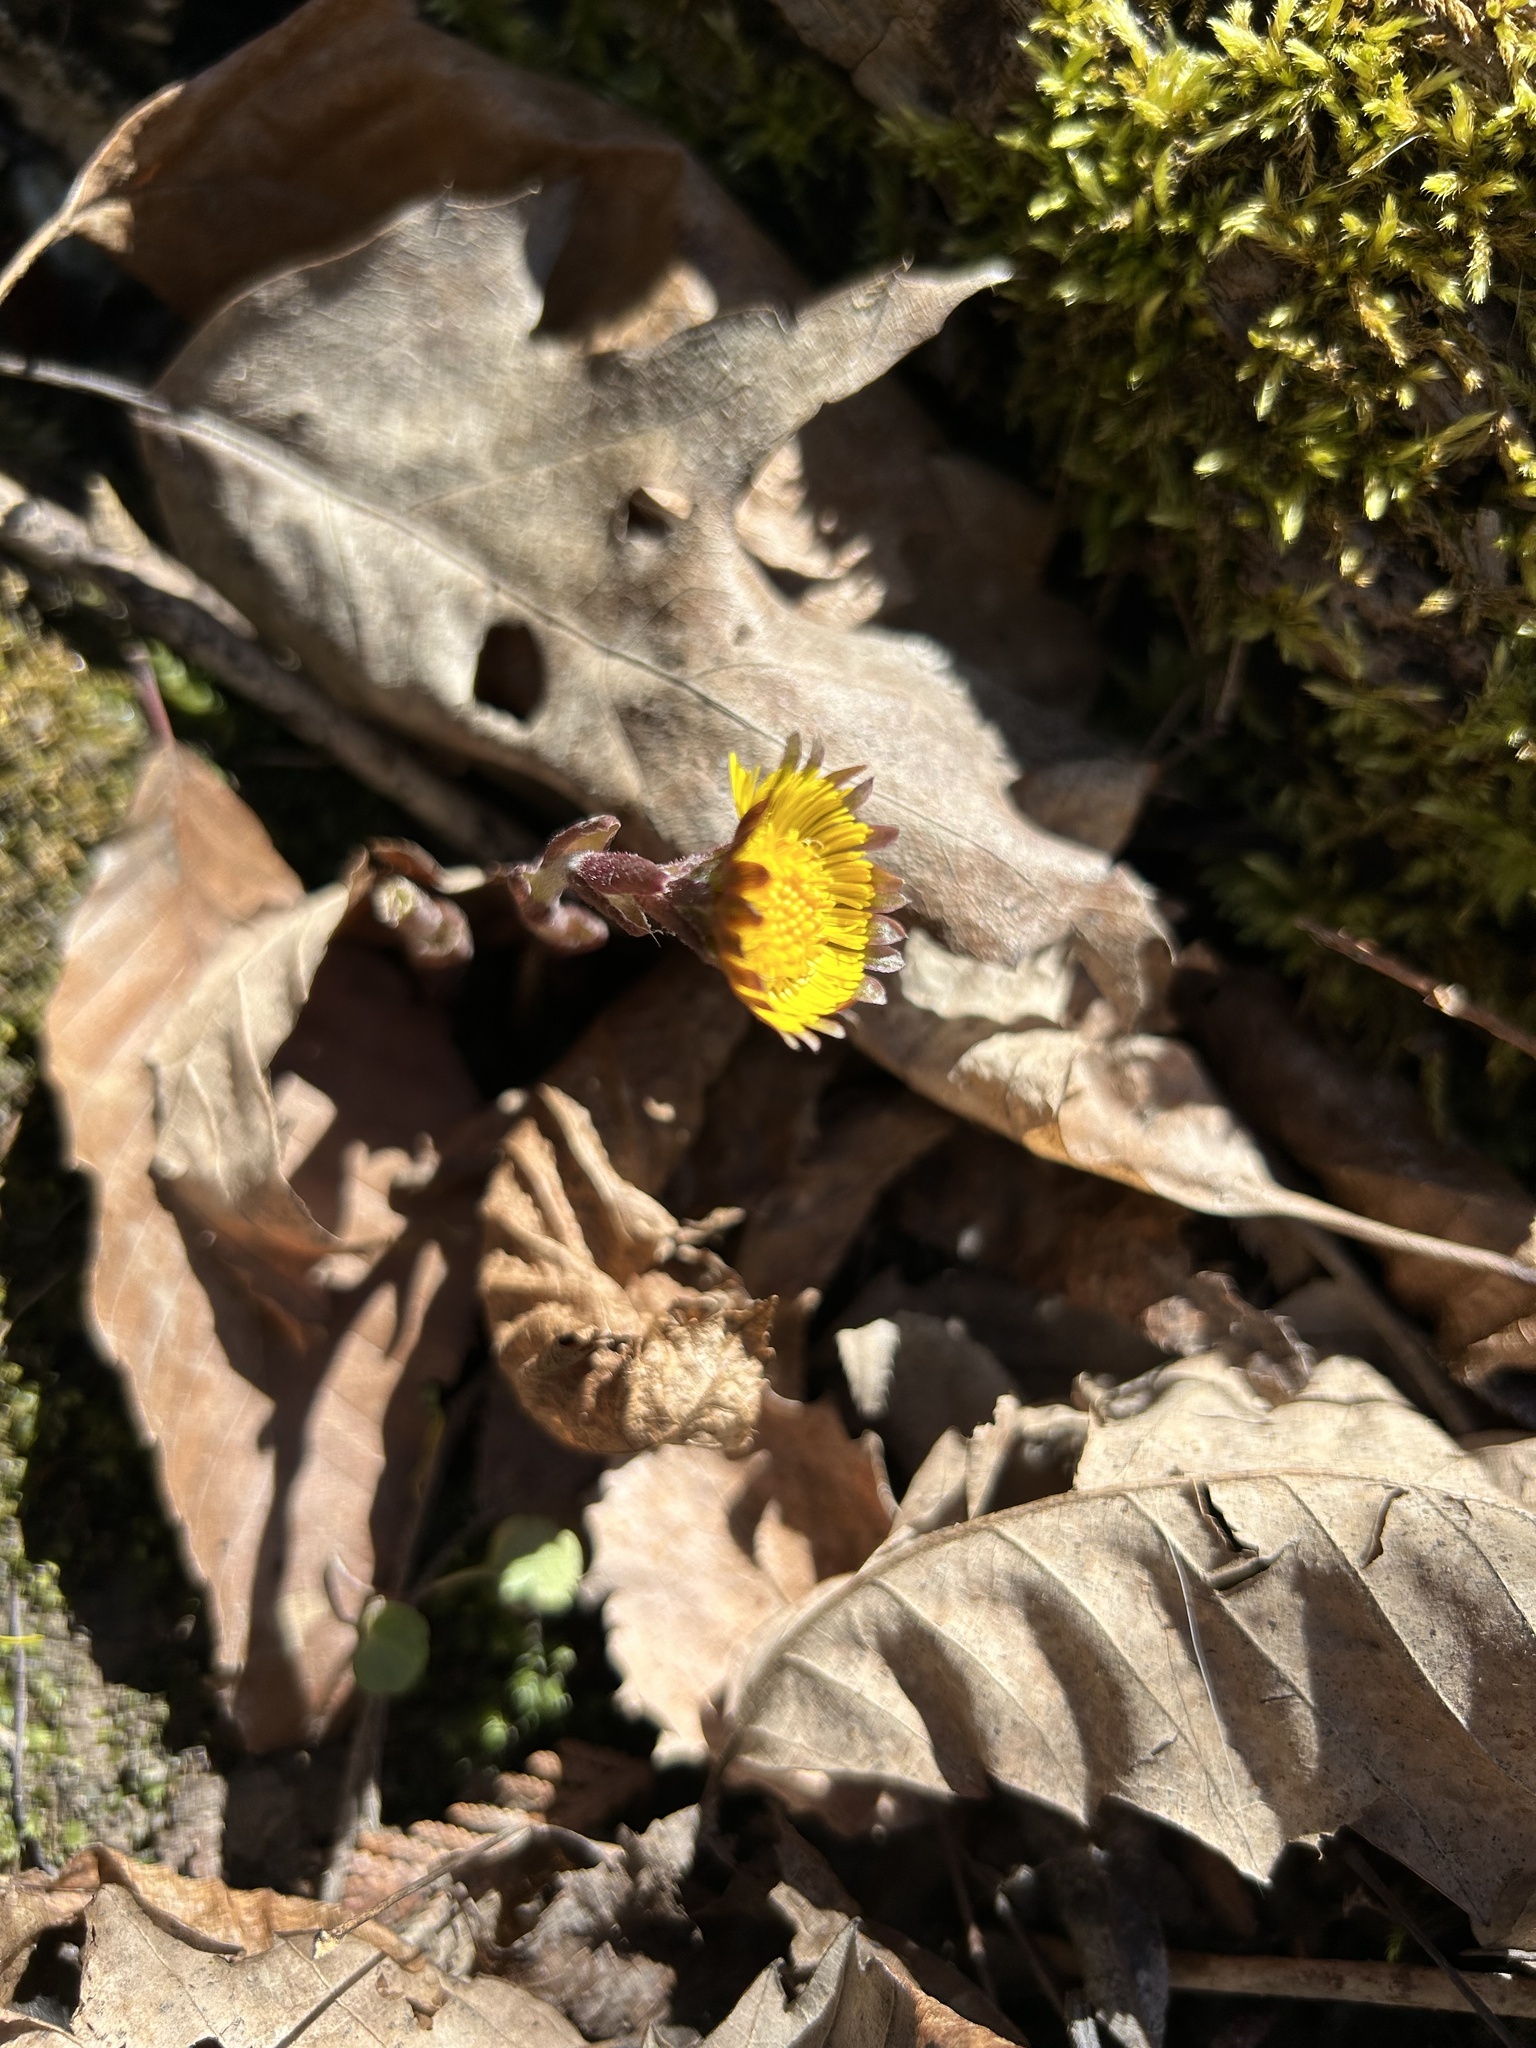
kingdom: Plantae
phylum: Tracheophyta
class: Magnoliopsida
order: Asterales
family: Asteraceae
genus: Tussilago
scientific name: Tussilago farfara
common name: Coltsfoot
